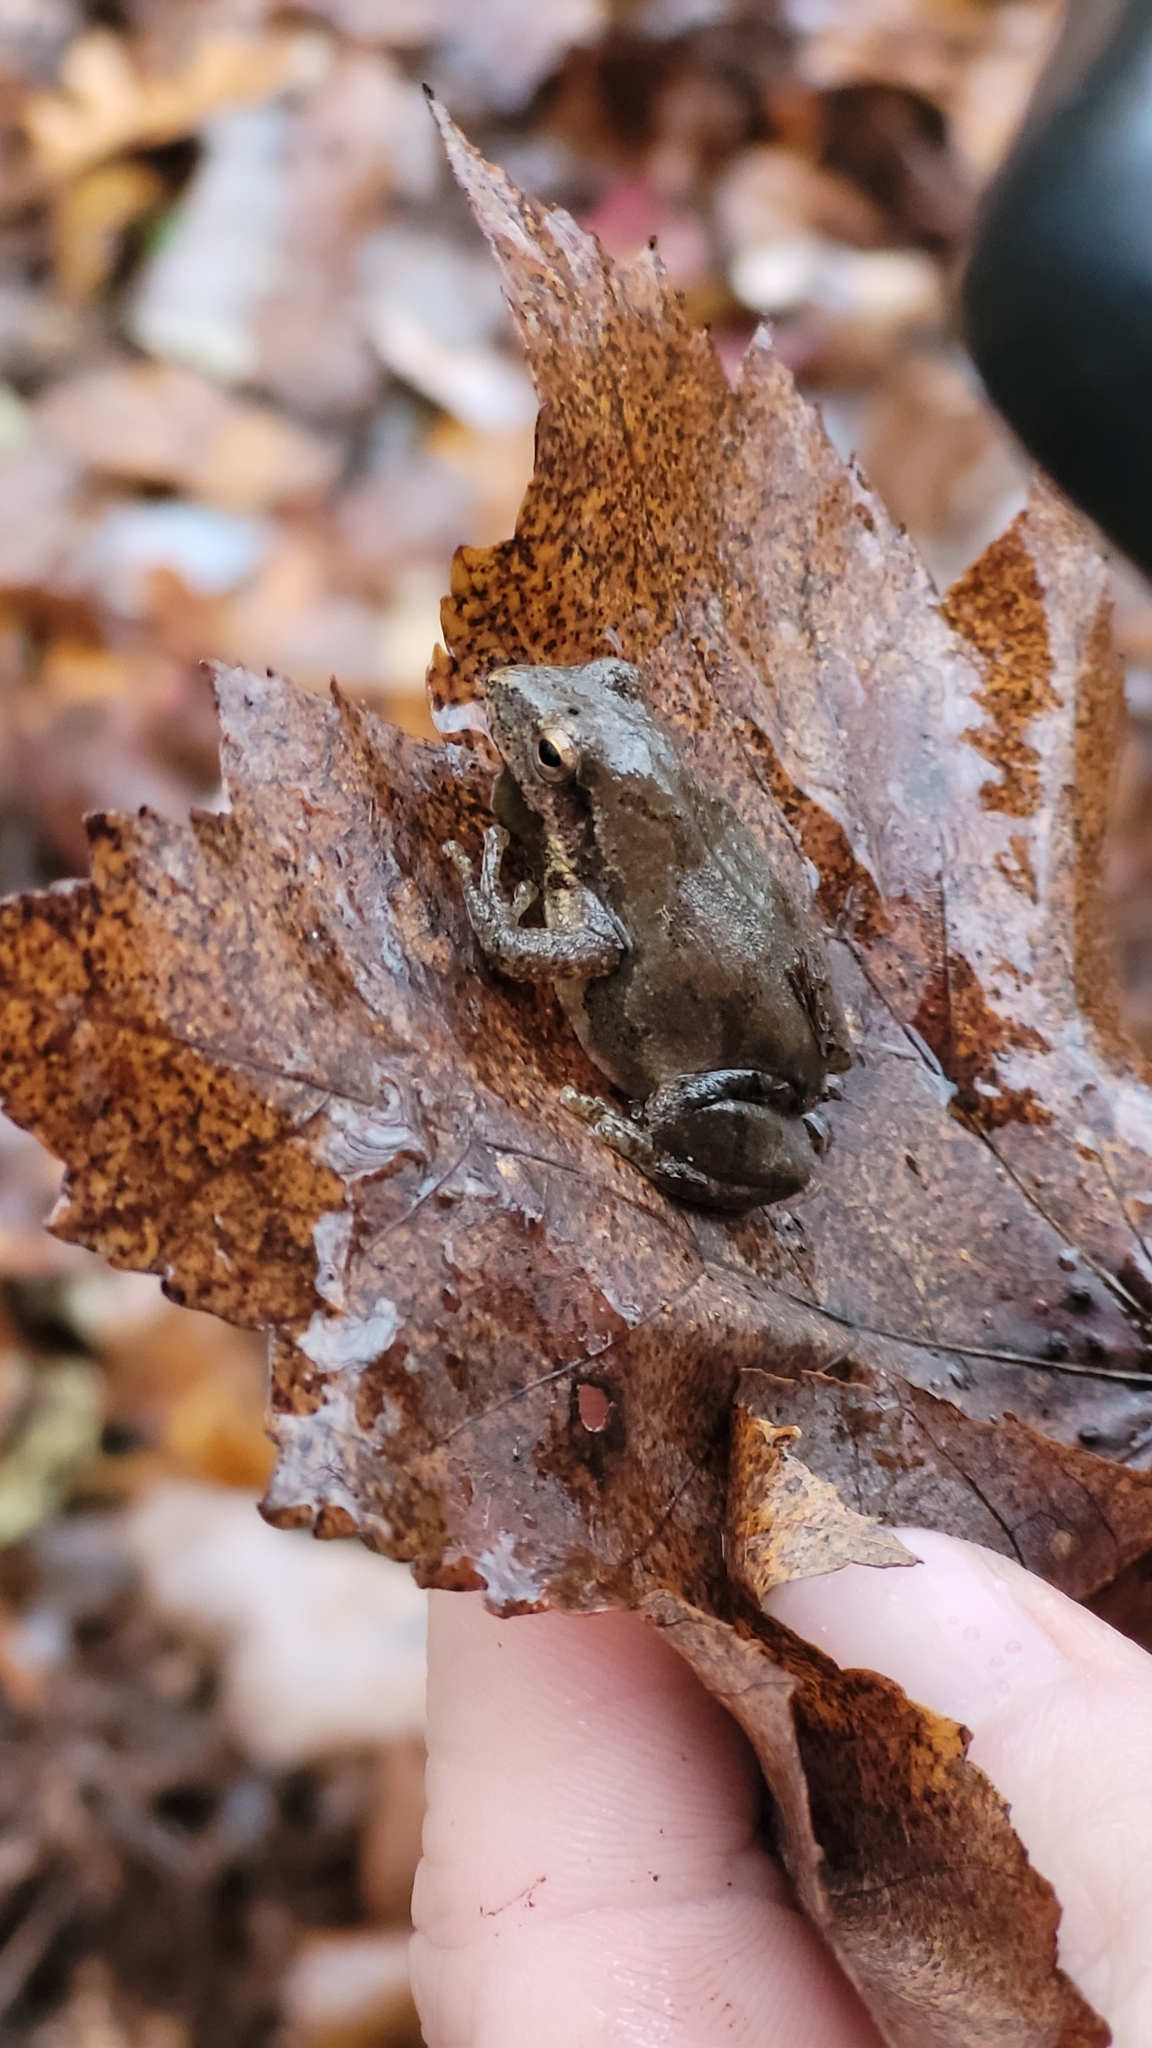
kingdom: Animalia
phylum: Chordata
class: Amphibia
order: Anura
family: Hylidae
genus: Pseudacris
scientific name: Pseudacris crucifer
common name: Spring peeper
